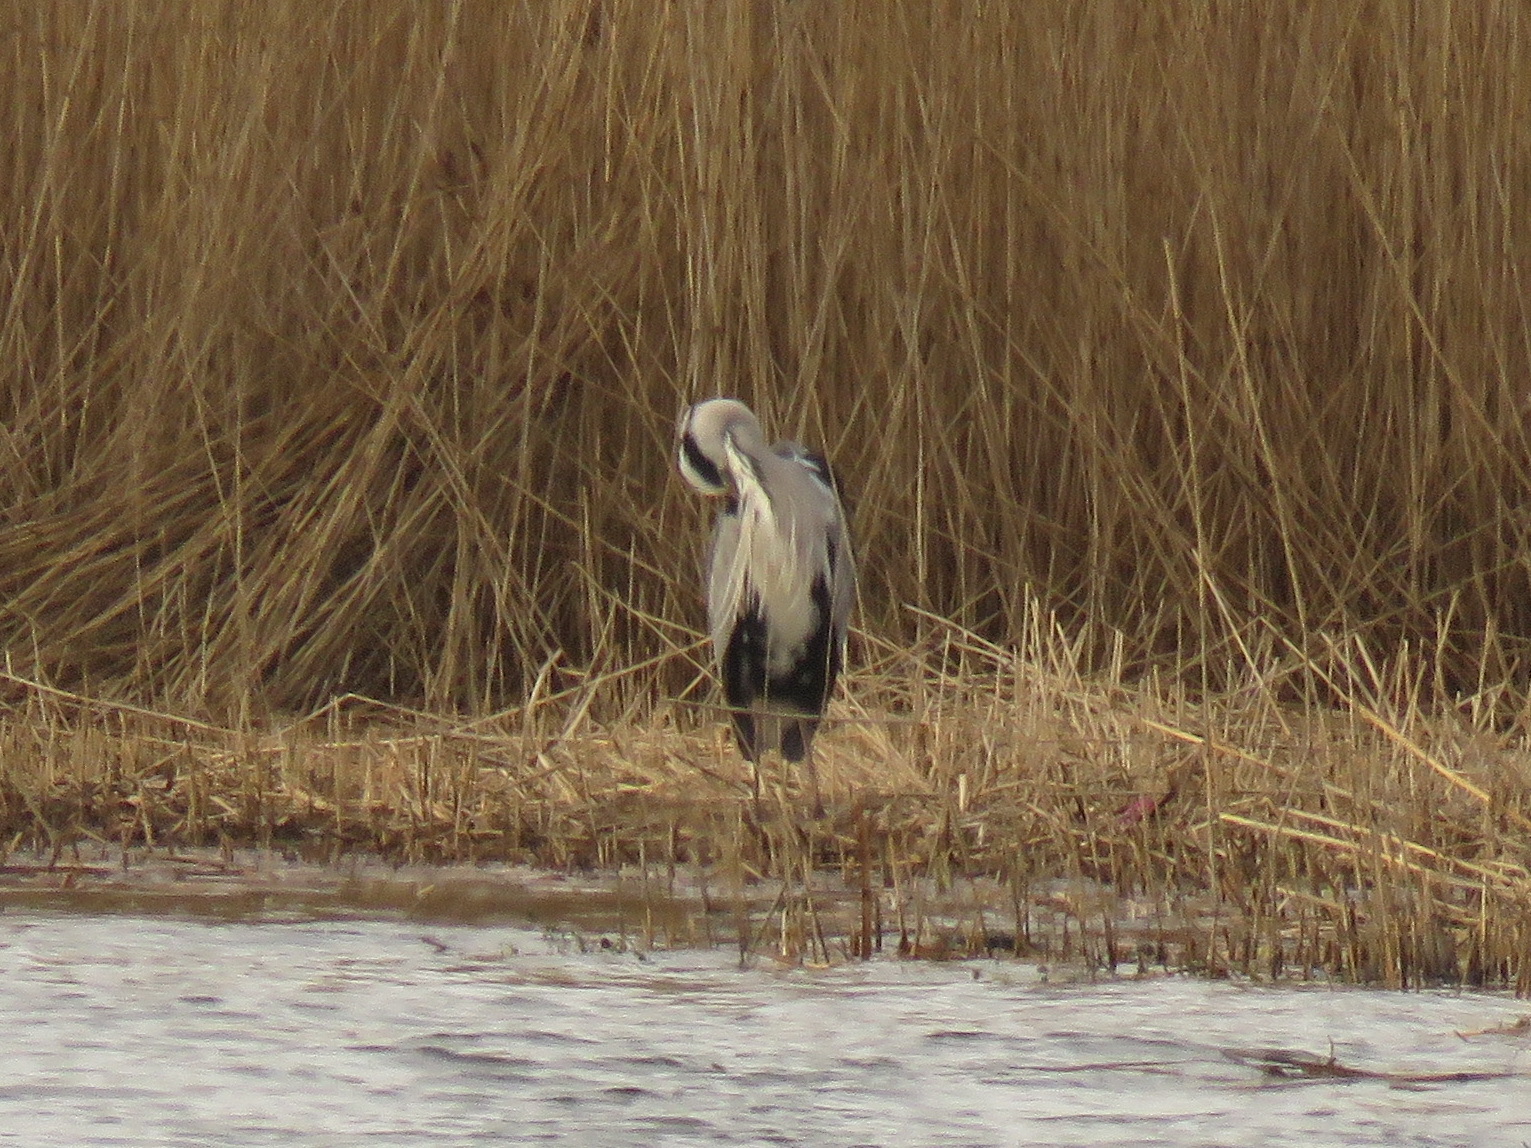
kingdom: Animalia
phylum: Chordata
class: Aves
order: Pelecaniformes
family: Ardeidae
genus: Ardea
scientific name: Ardea cinerea
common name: Grey heron
